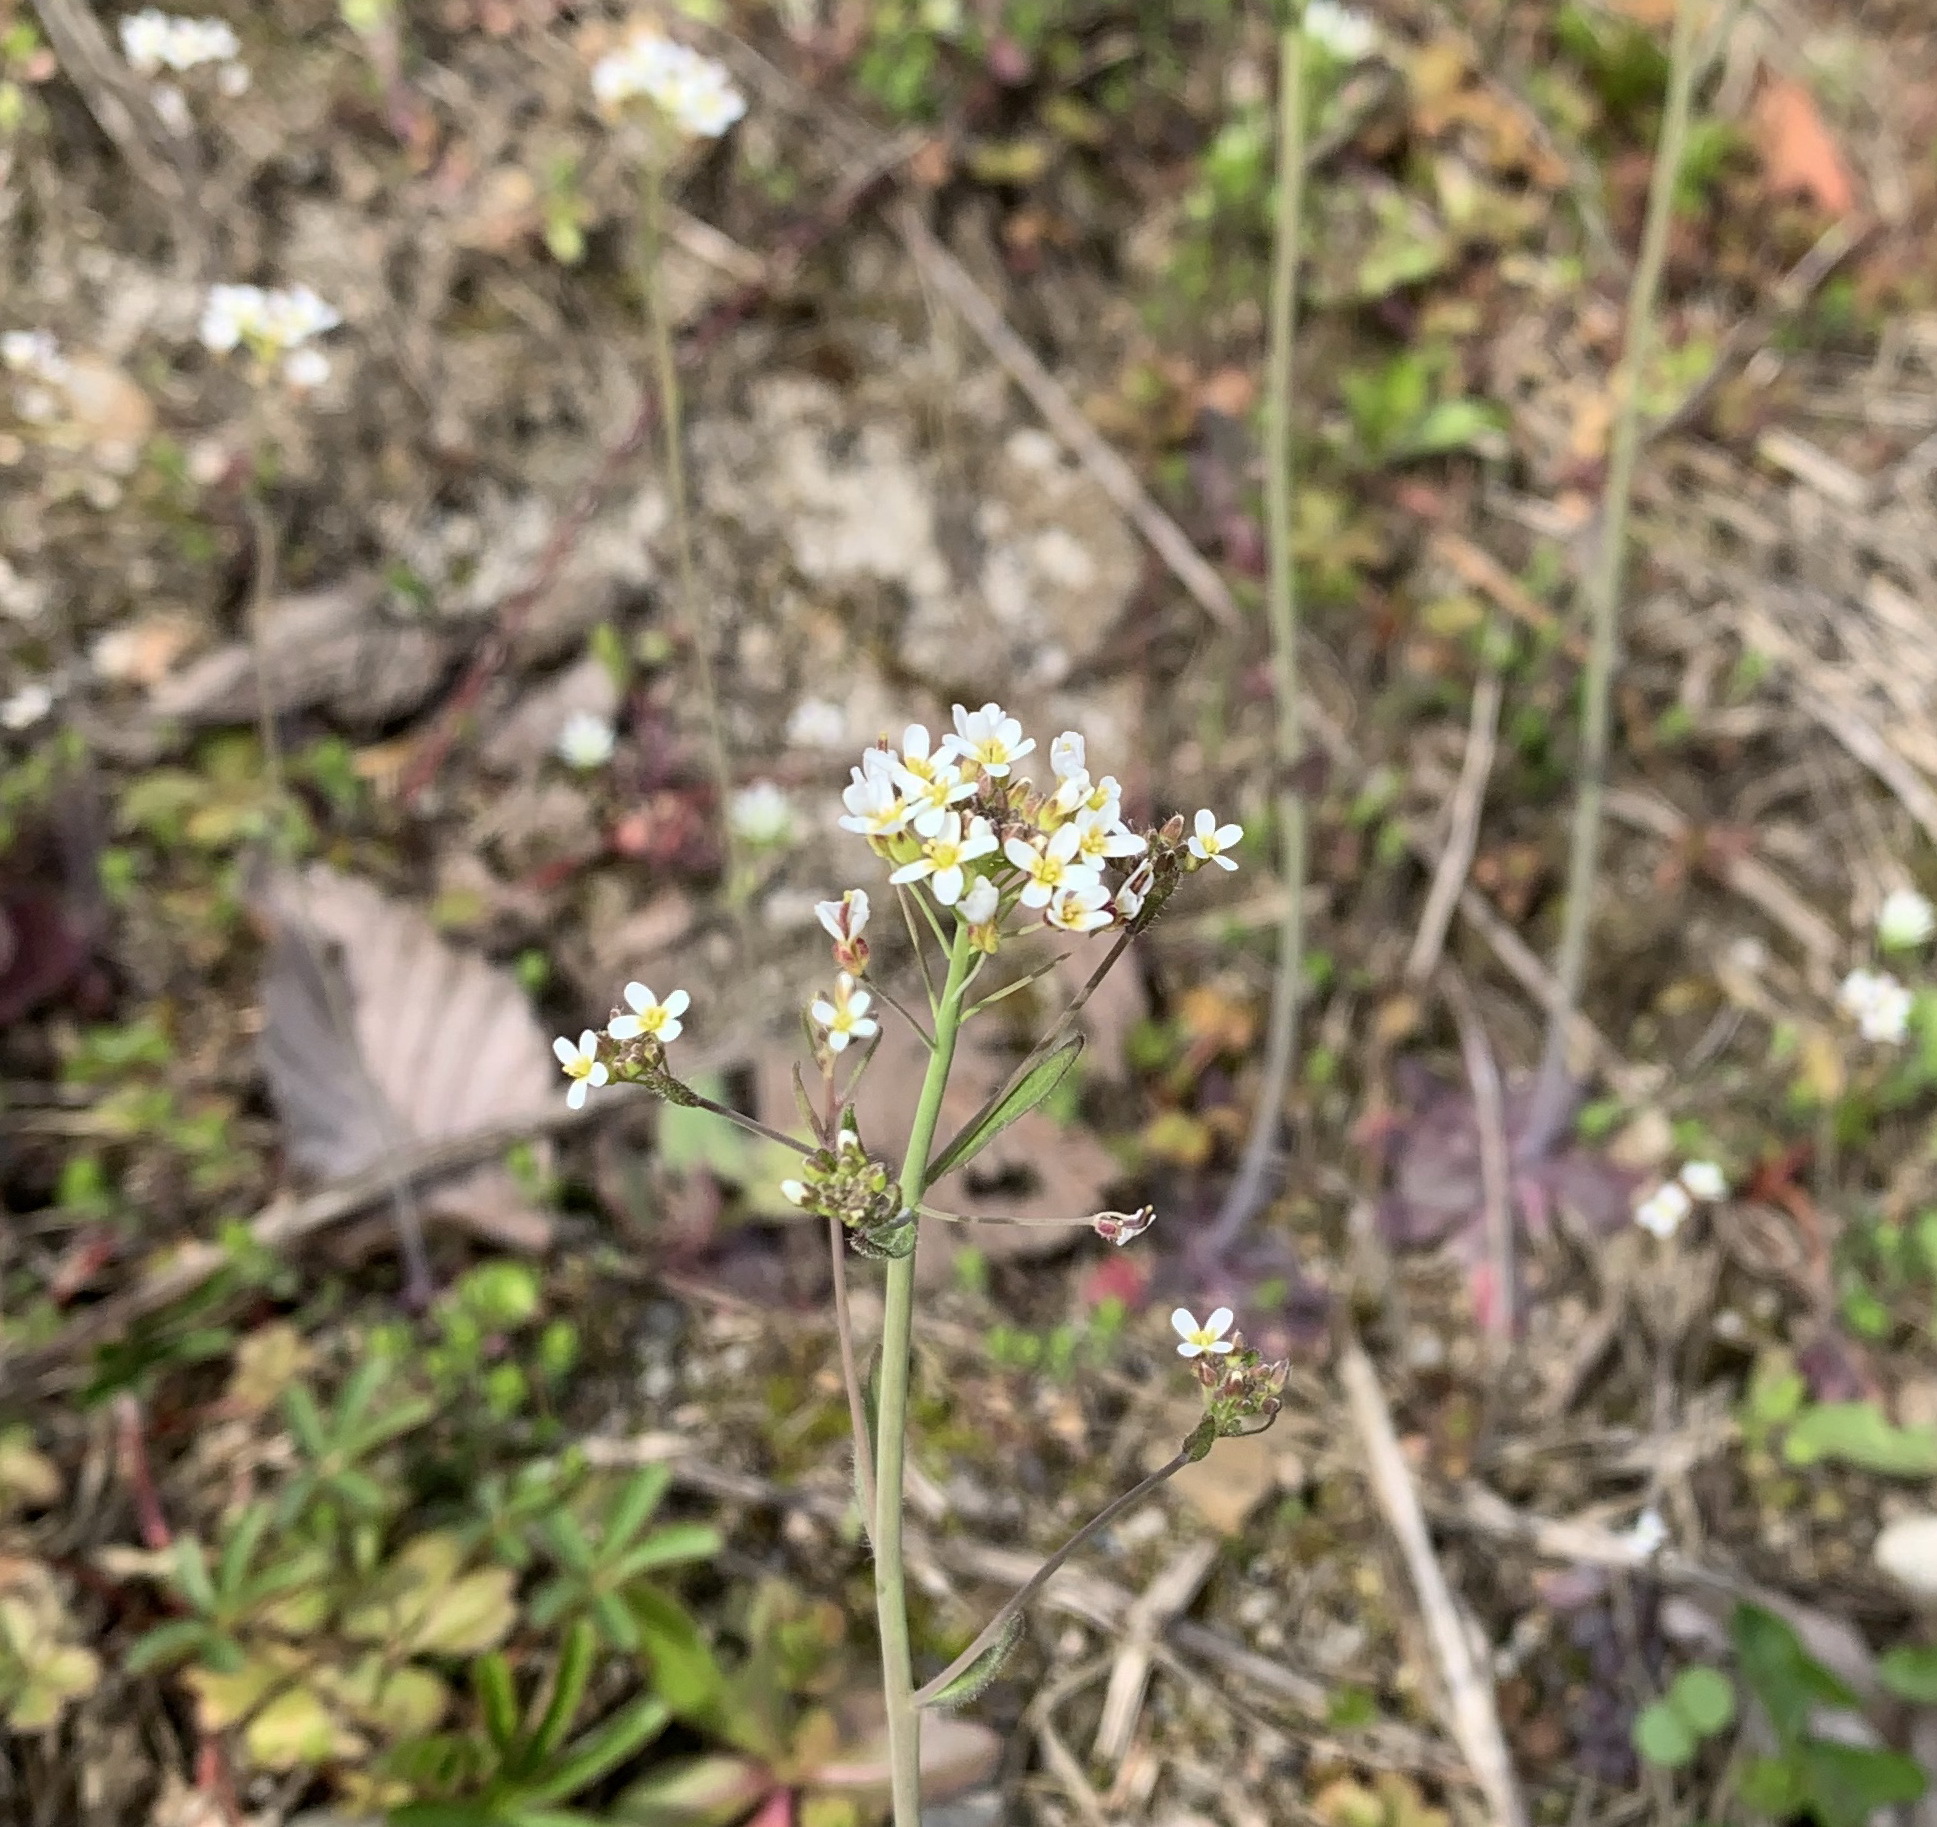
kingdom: Plantae
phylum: Tracheophyta
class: Magnoliopsida
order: Brassicales
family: Brassicaceae
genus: Arabidopsis
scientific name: Arabidopsis thaliana
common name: Thale cress
